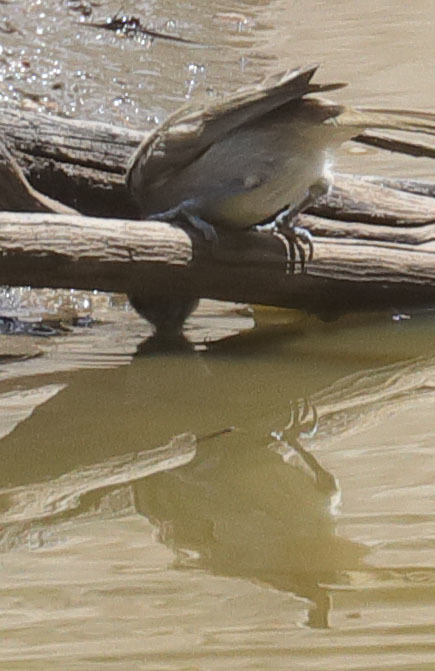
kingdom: Animalia
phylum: Chordata
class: Aves
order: Passeriformes
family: Paridae
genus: Baeolophus
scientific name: Baeolophus inornatus
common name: Oak titmouse
